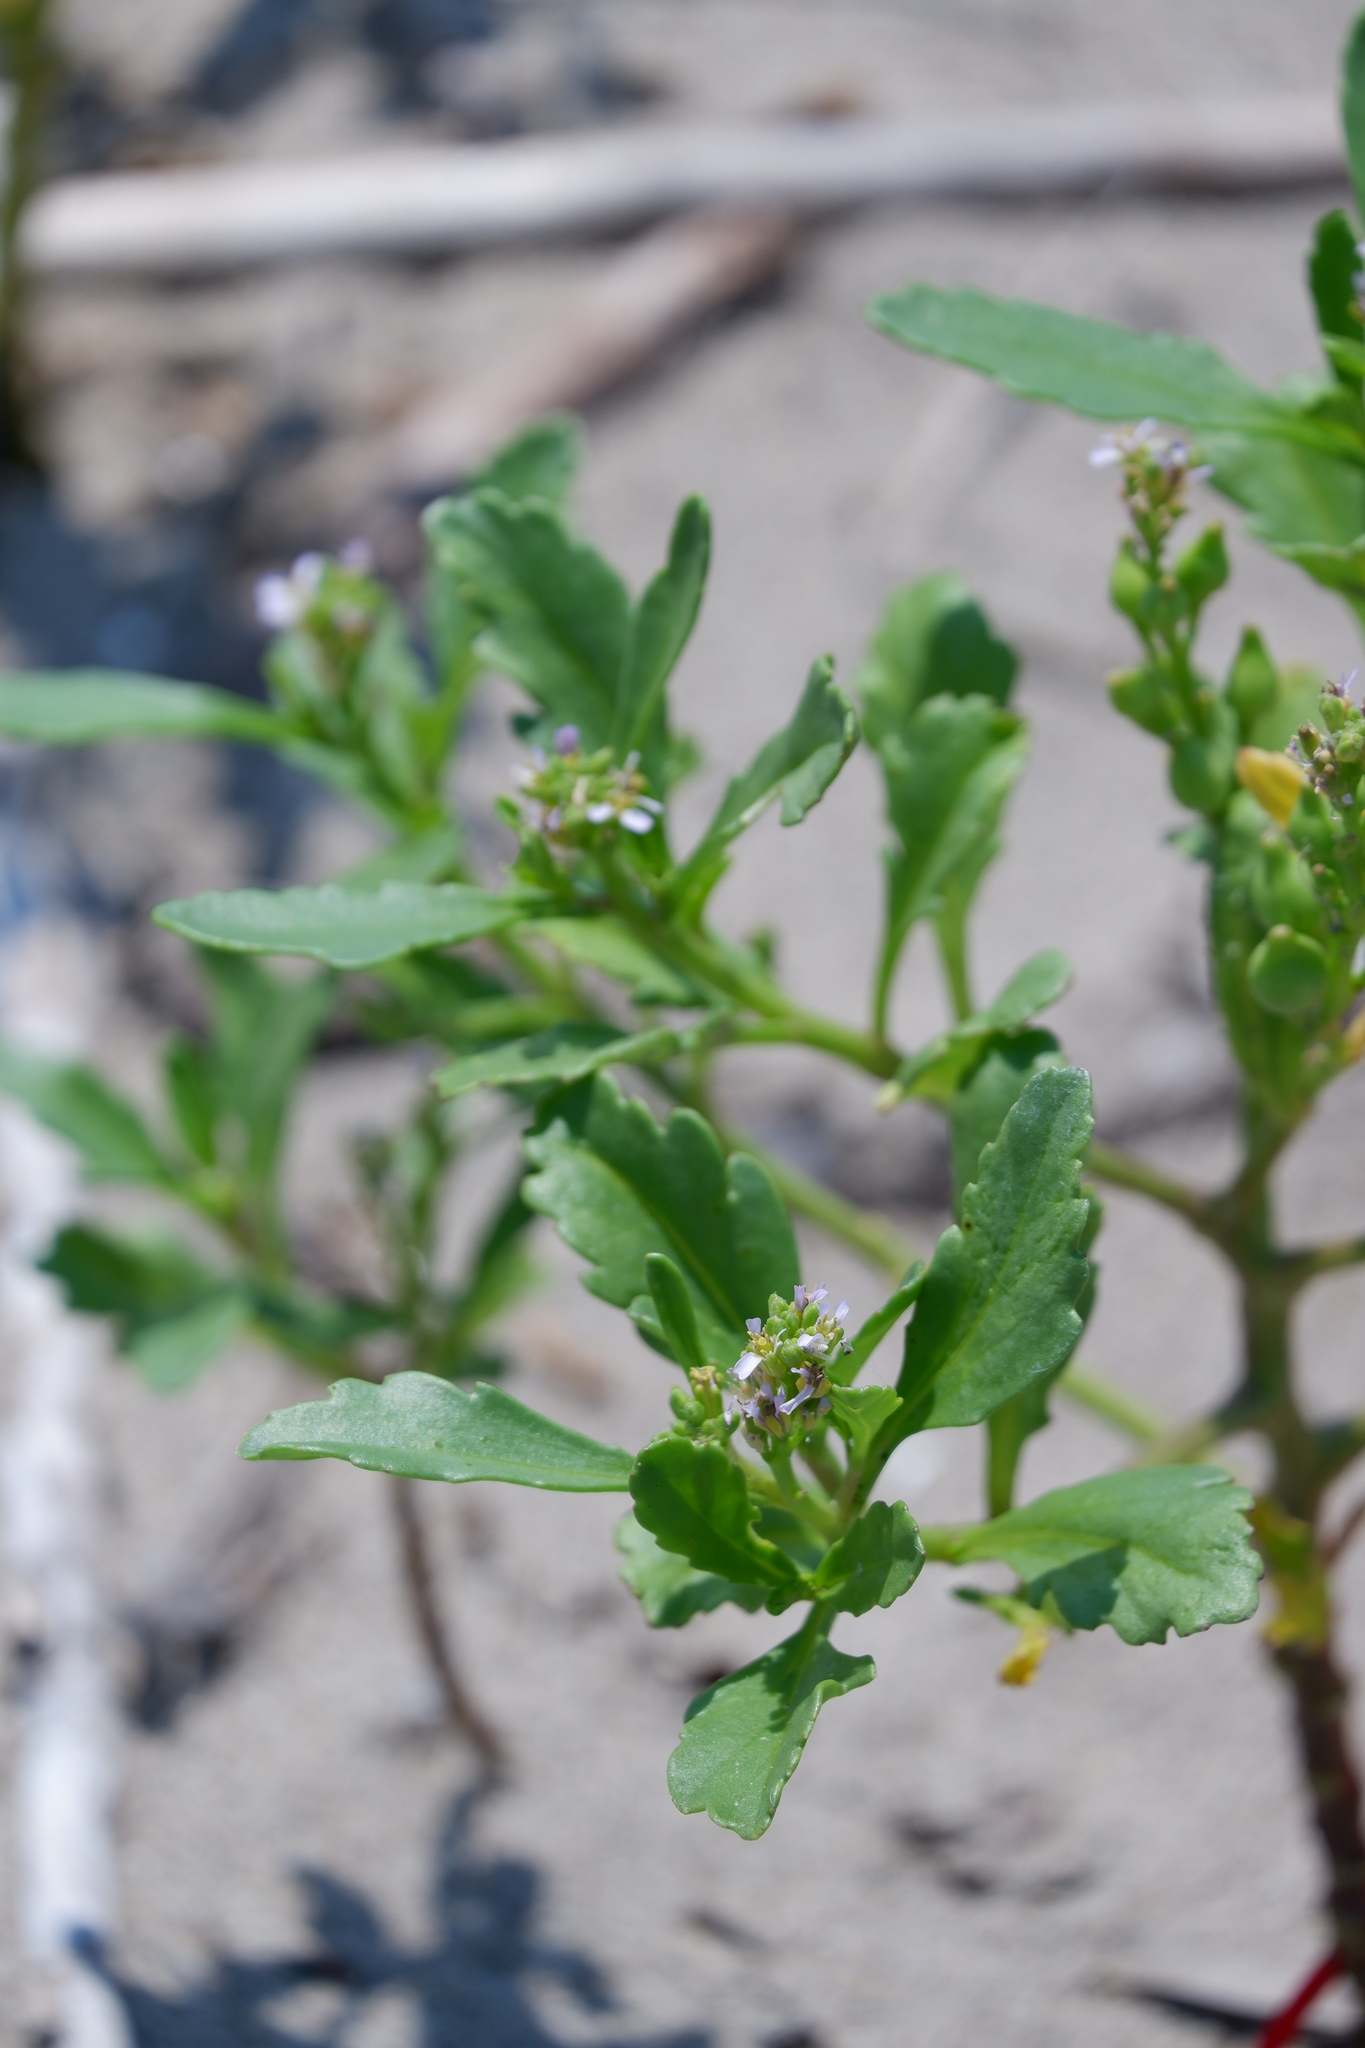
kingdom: Plantae
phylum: Tracheophyta
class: Magnoliopsida
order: Brassicales
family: Brassicaceae
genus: Cakile
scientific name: Cakile edentula
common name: American sea rocket
